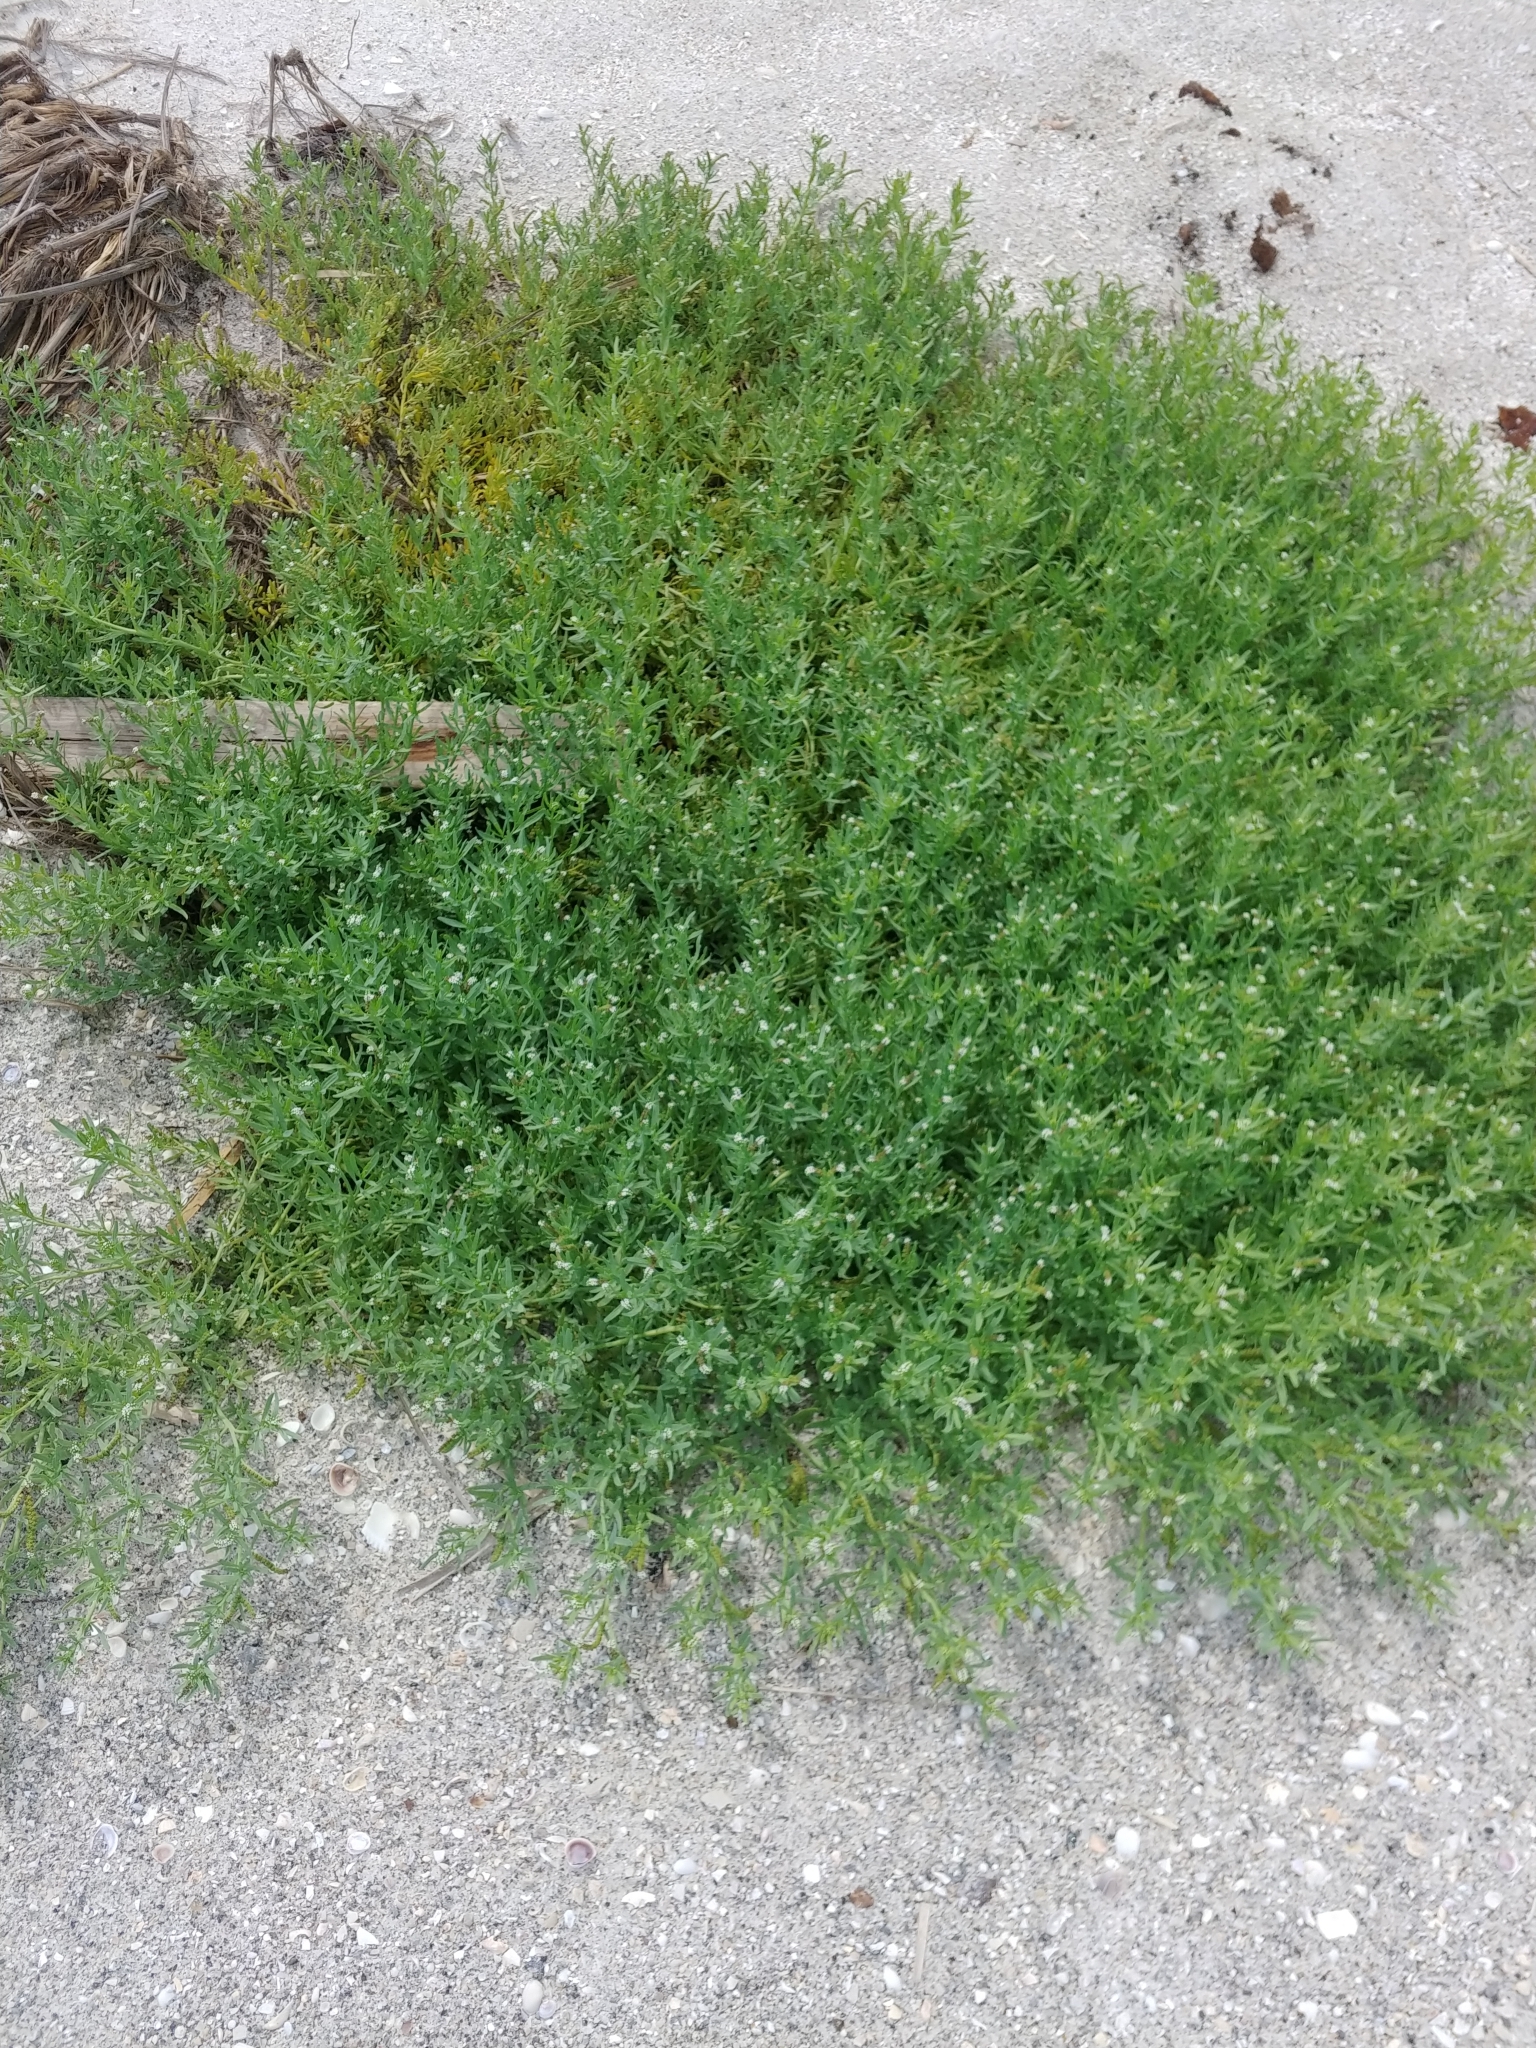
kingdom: Plantae
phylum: Tracheophyta
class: Magnoliopsida
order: Boraginales
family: Heliotropiaceae
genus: Heliotropium
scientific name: Heliotropium curassavicum
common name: Seaside heliotrope
